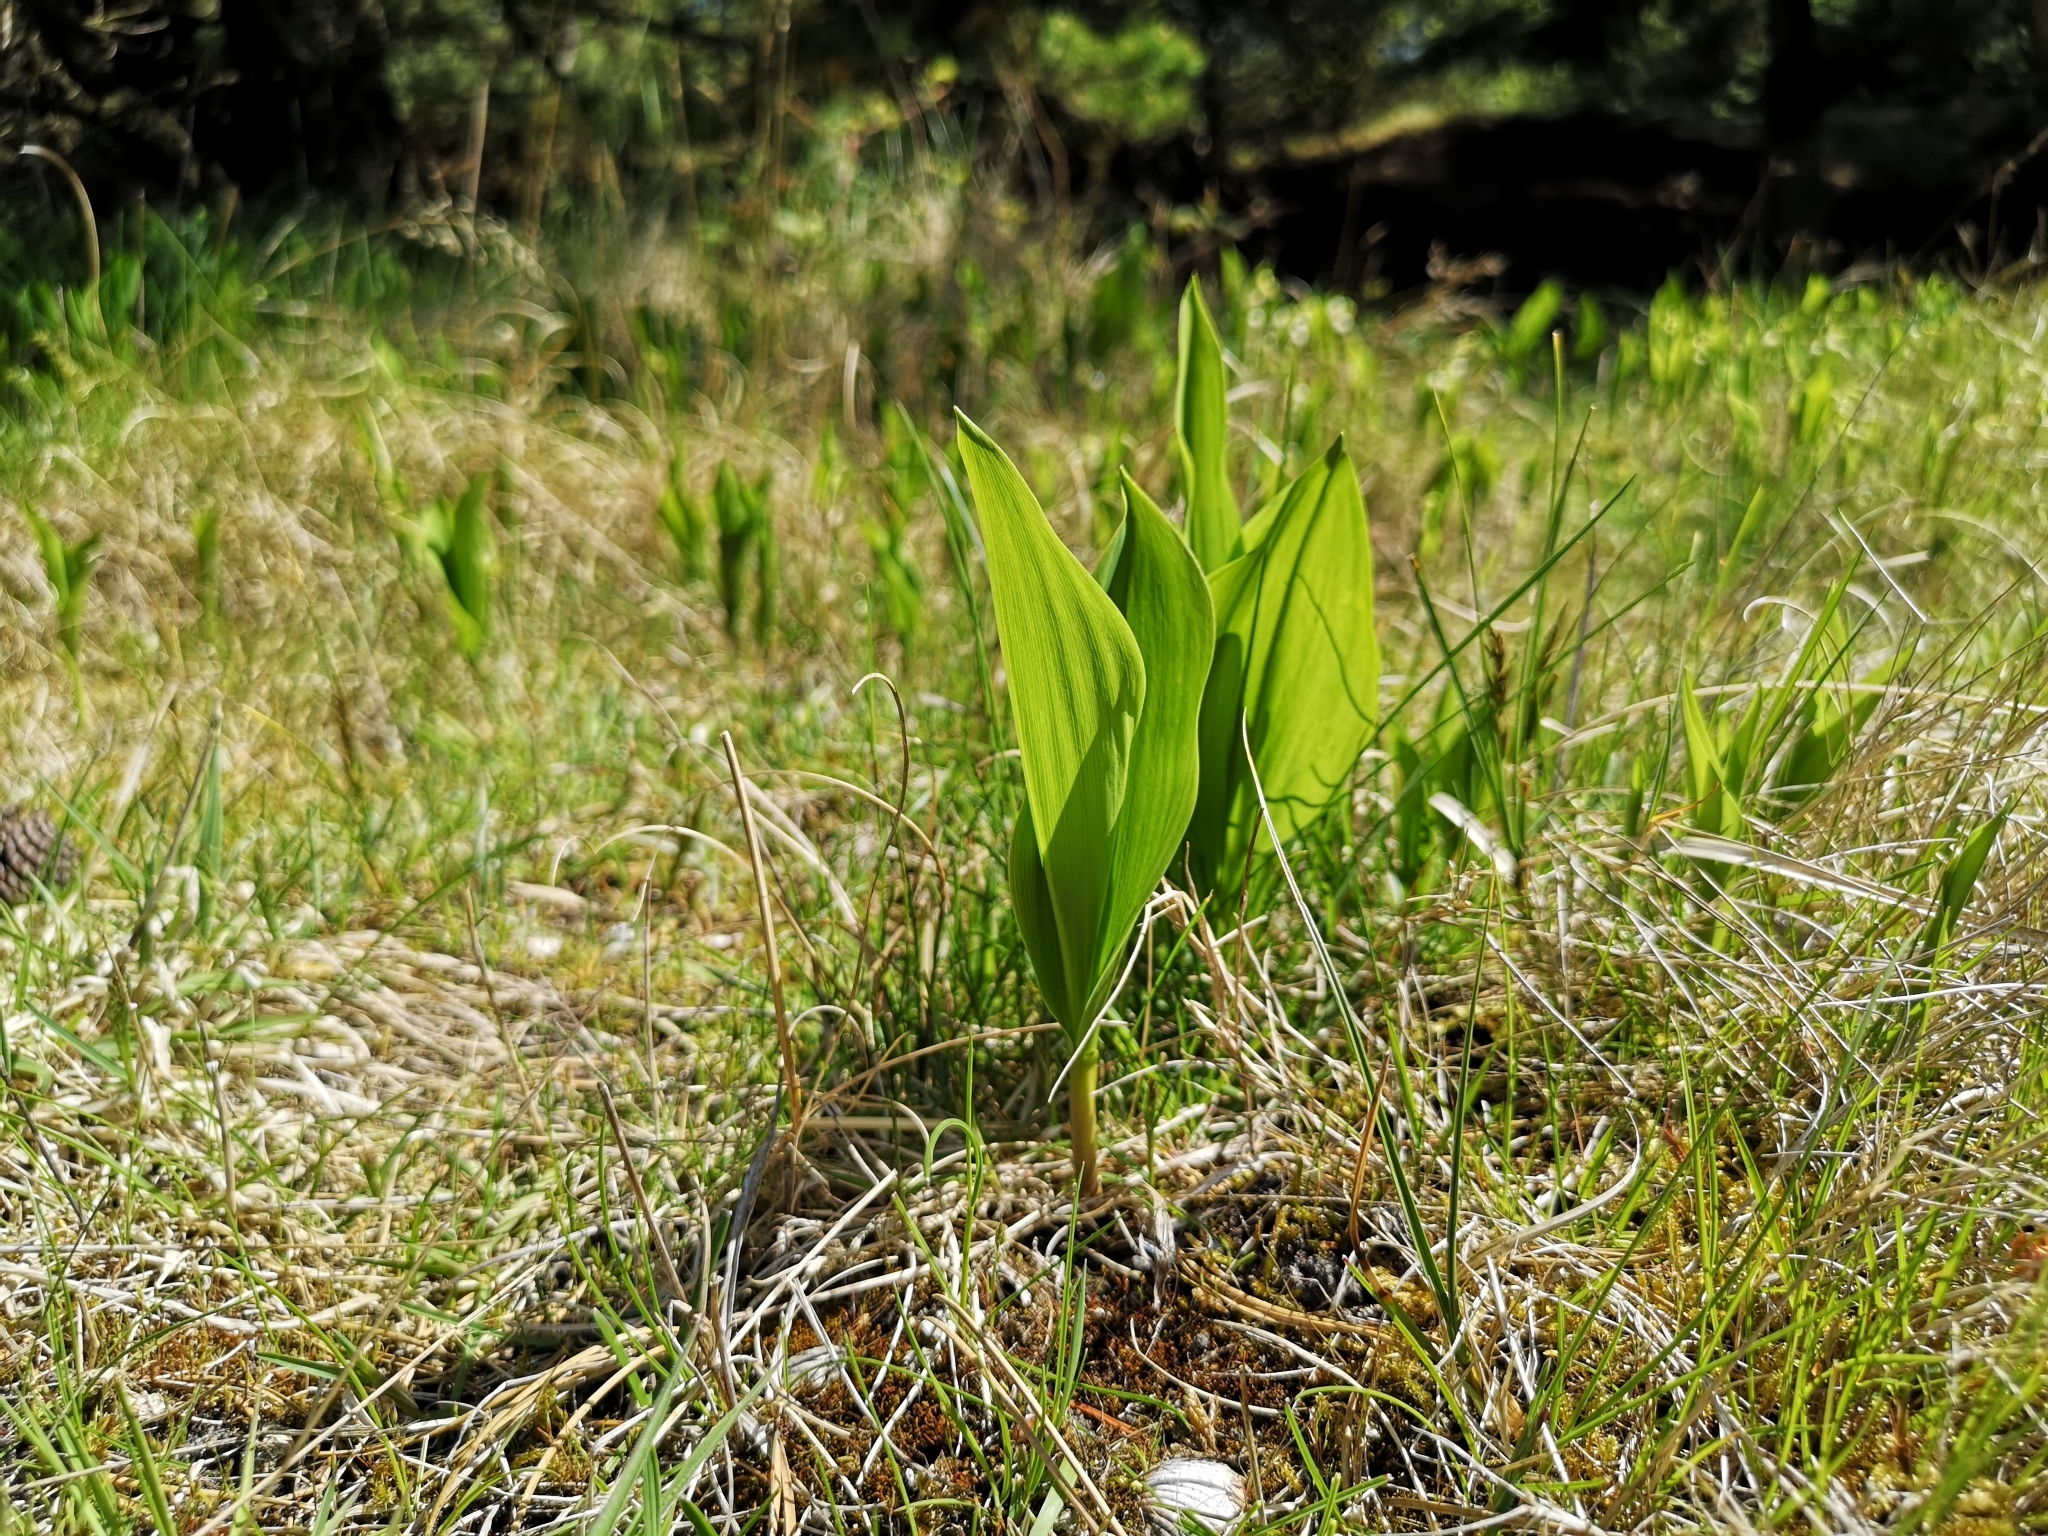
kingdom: Plantae
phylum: Tracheophyta
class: Liliopsida
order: Asparagales
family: Asparagaceae
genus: Convallaria
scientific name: Convallaria majalis
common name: Lily-of-the-valley
